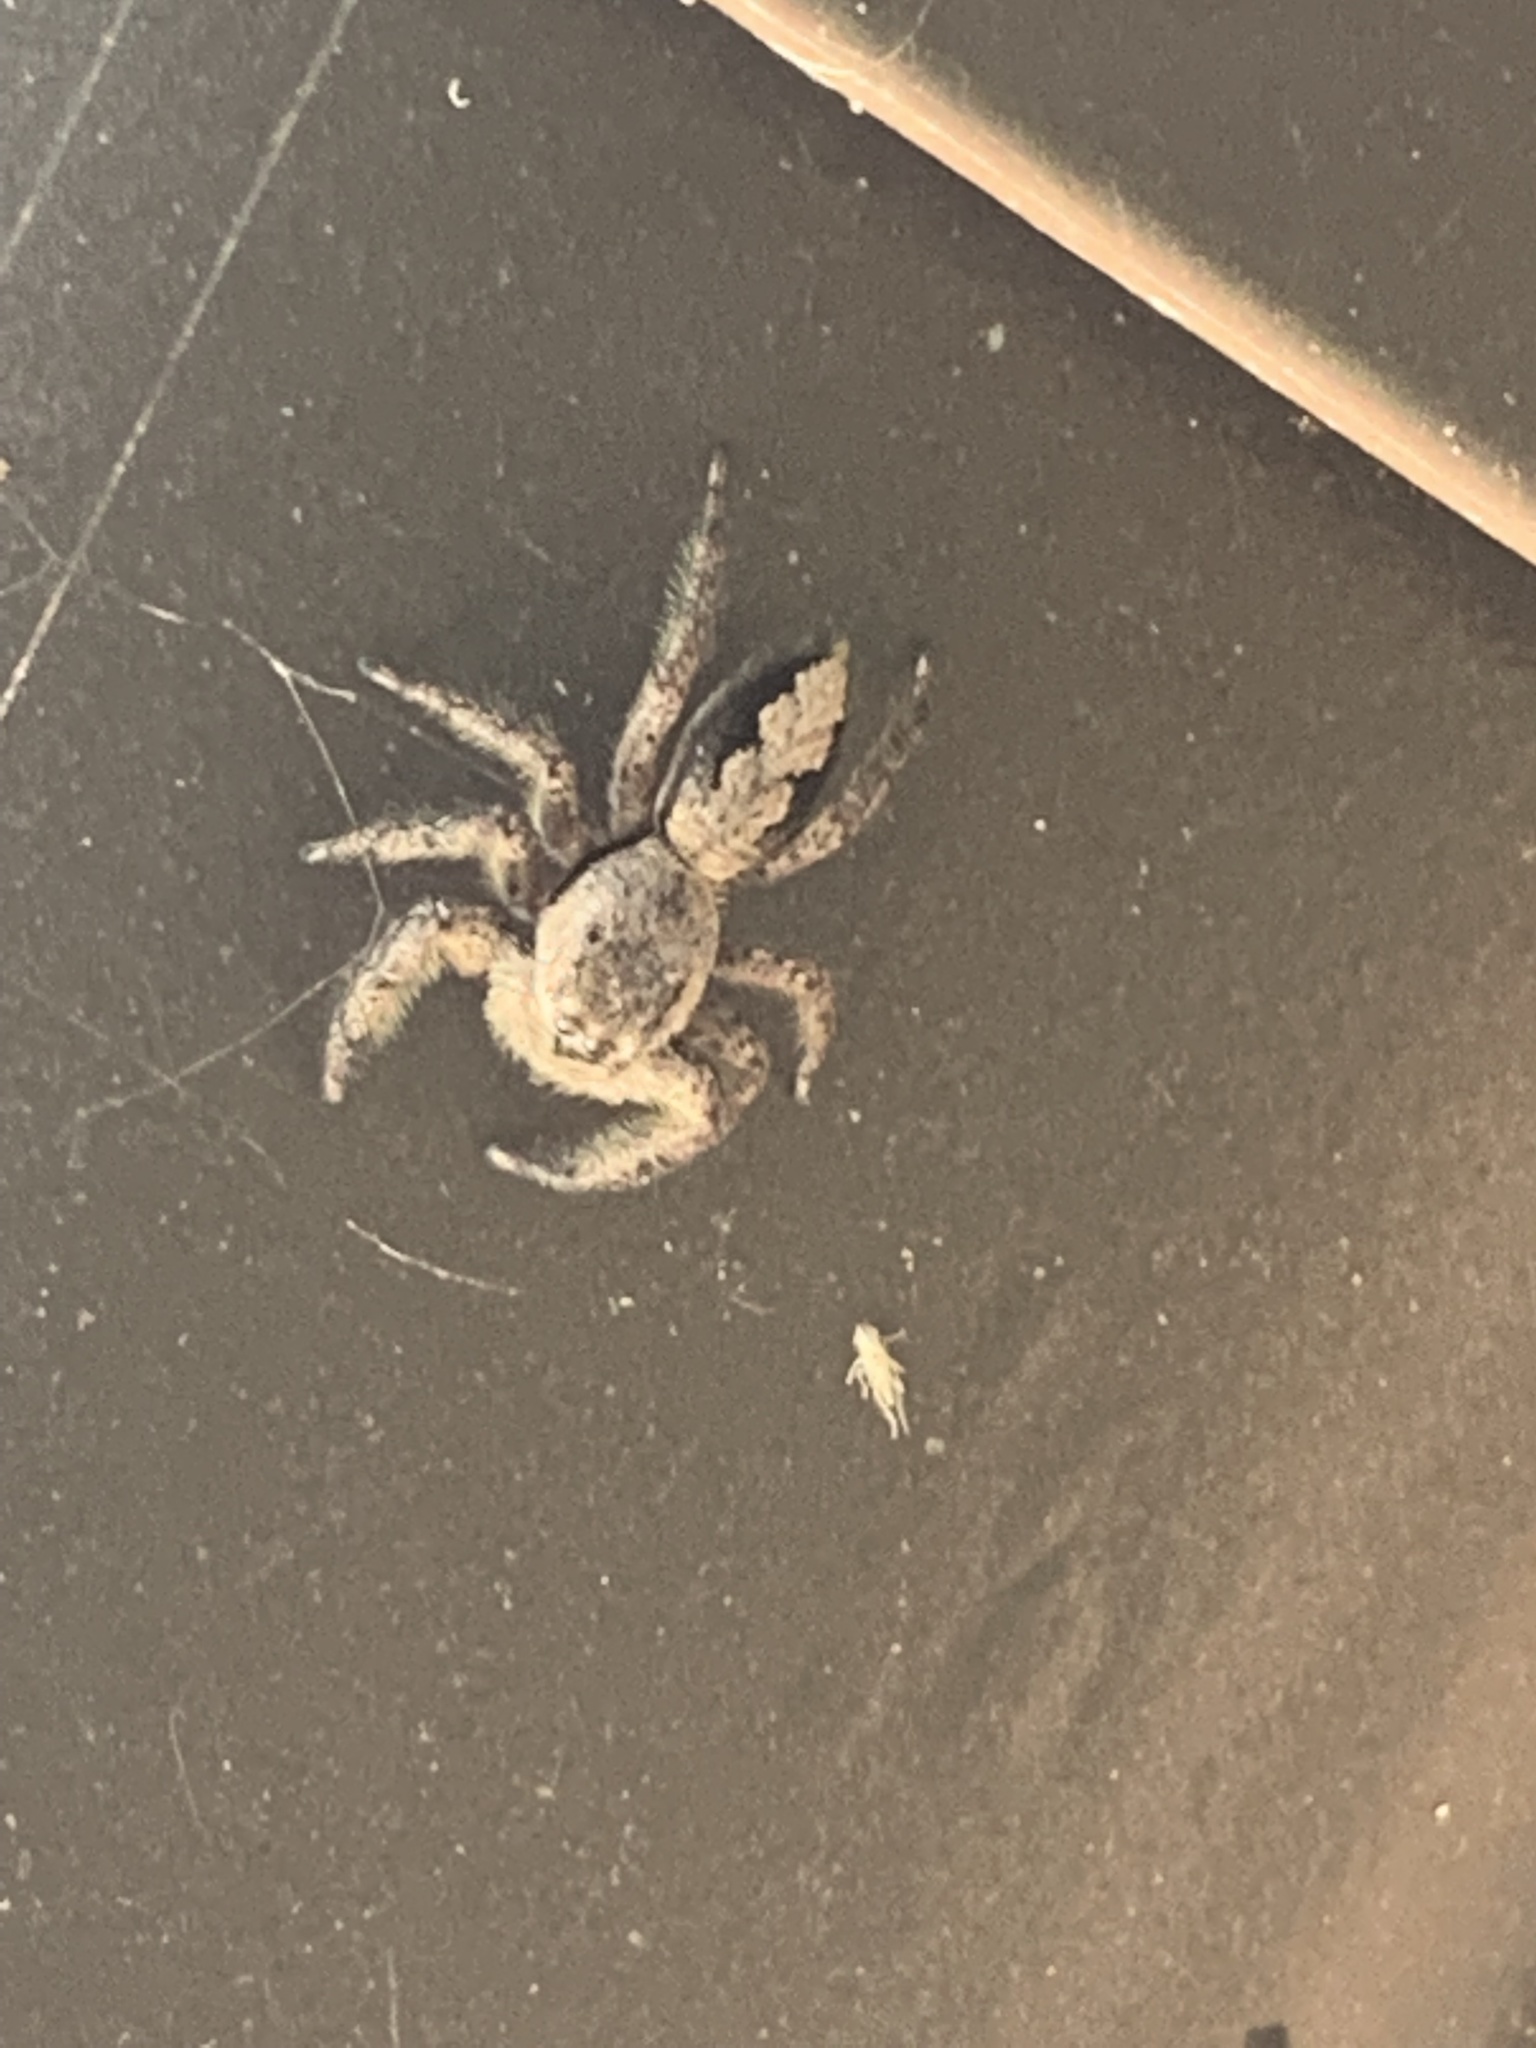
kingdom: Animalia
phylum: Arthropoda
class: Arachnida
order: Araneae
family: Salticidae
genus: Platycryptus
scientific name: Platycryptus undatus
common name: Tan jumping spider
